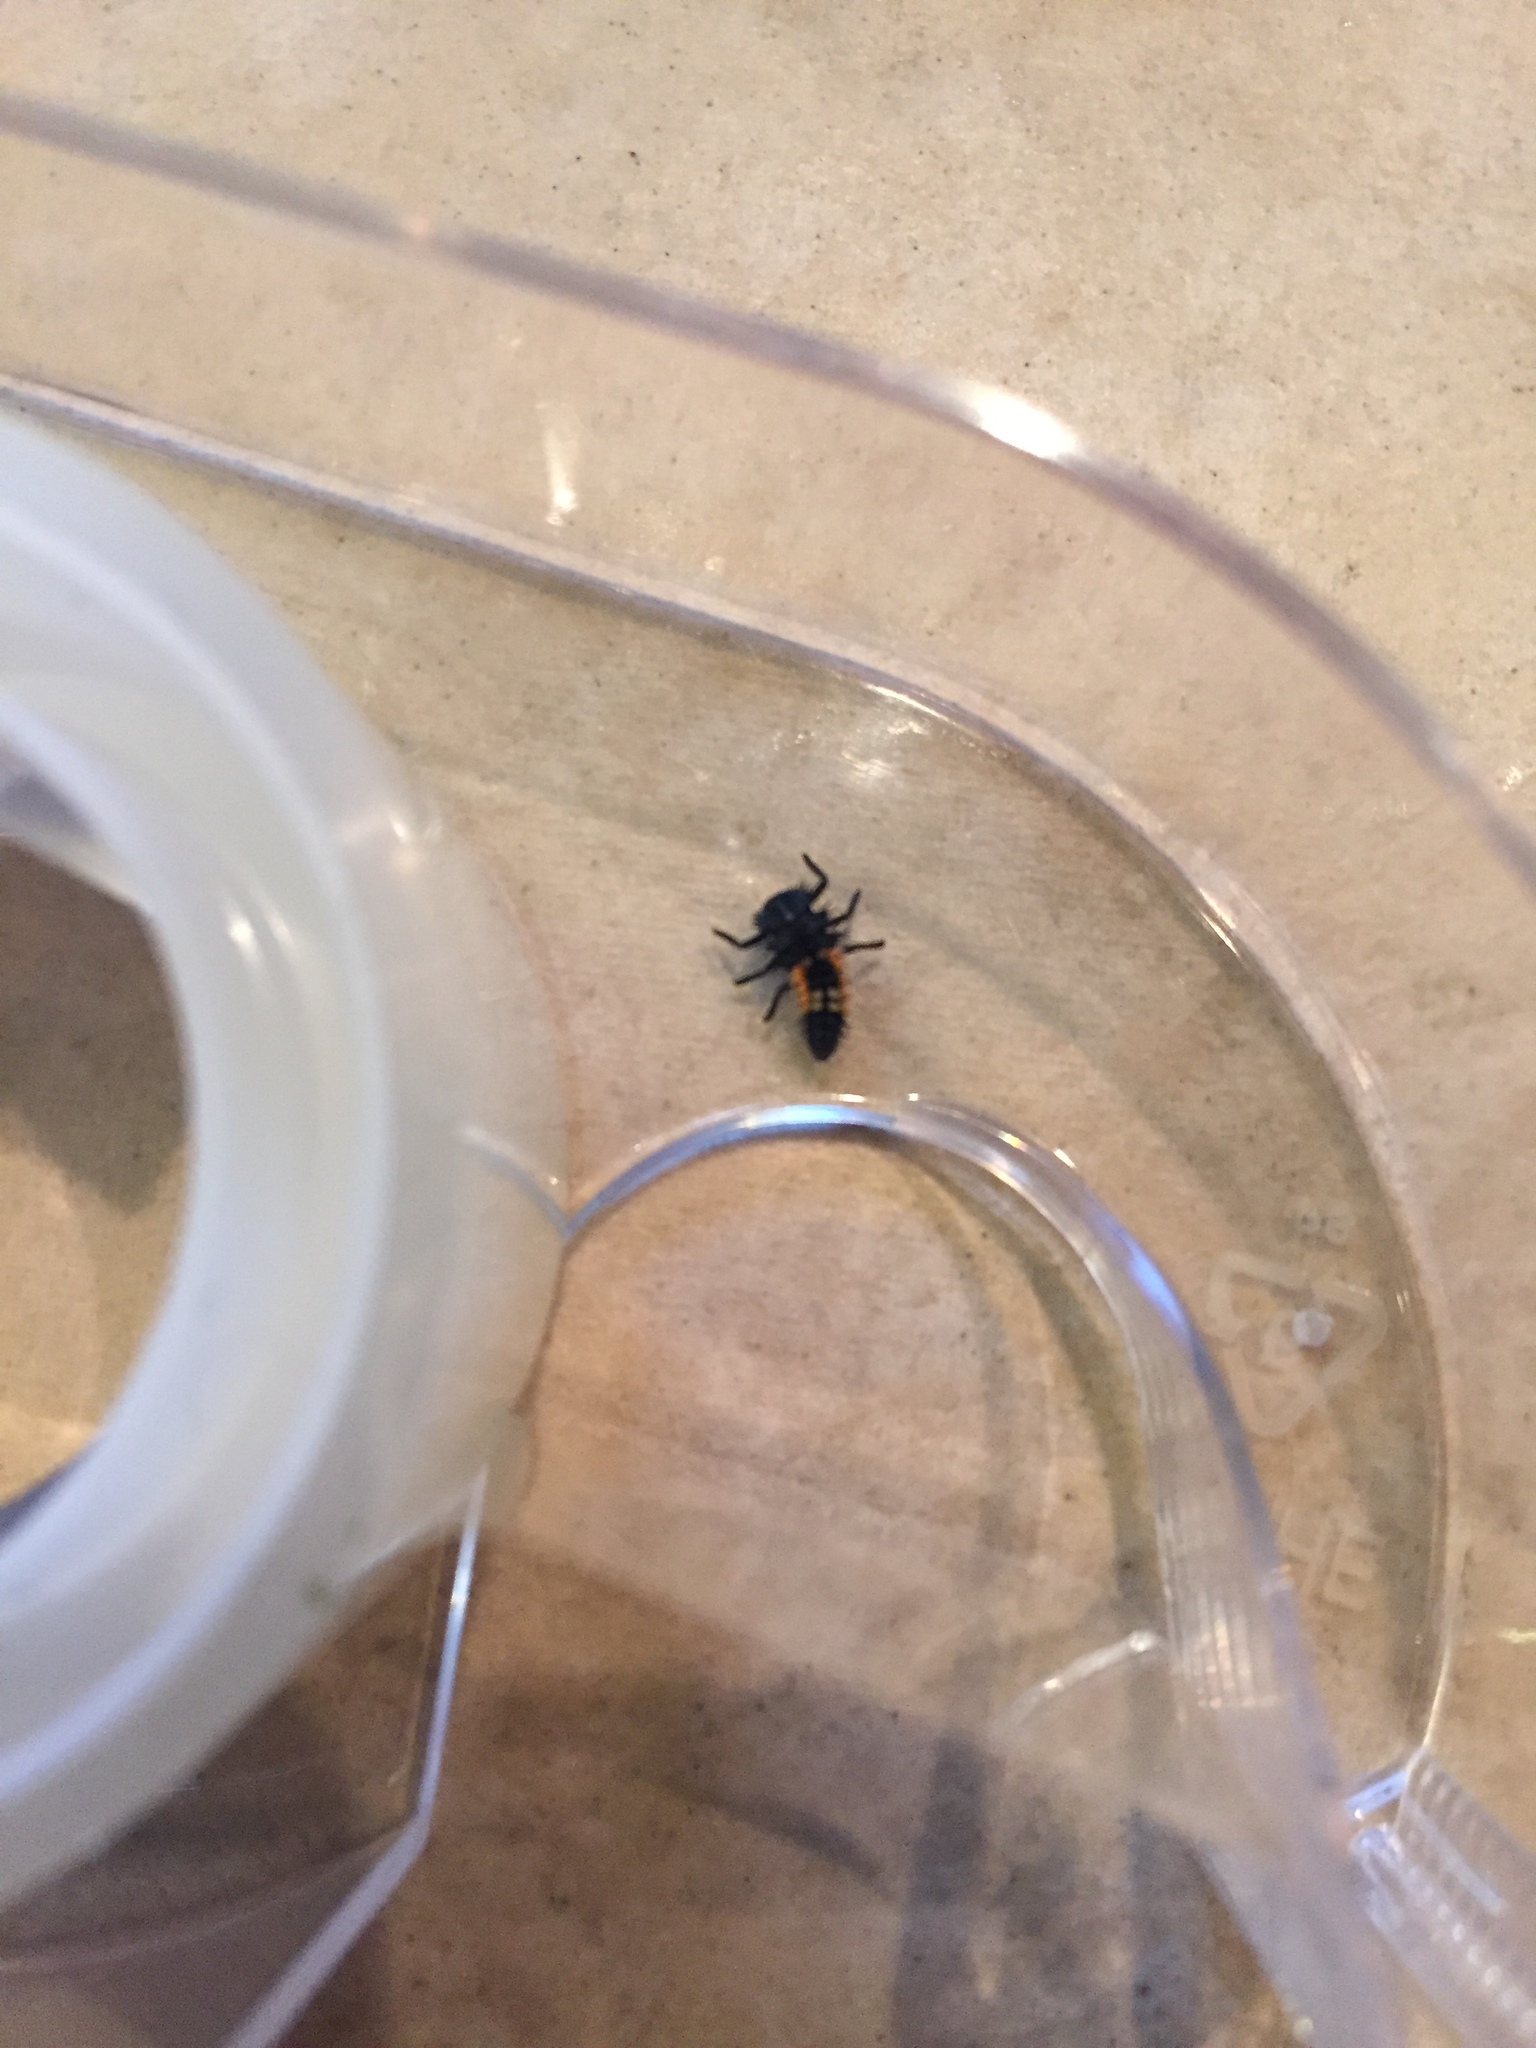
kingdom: Animalia
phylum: Arthropoda
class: Insecta
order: Coleoptera
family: Coccinellidae
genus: Harmonia
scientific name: Harmonia axyridis
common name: Harlequin ladybird
